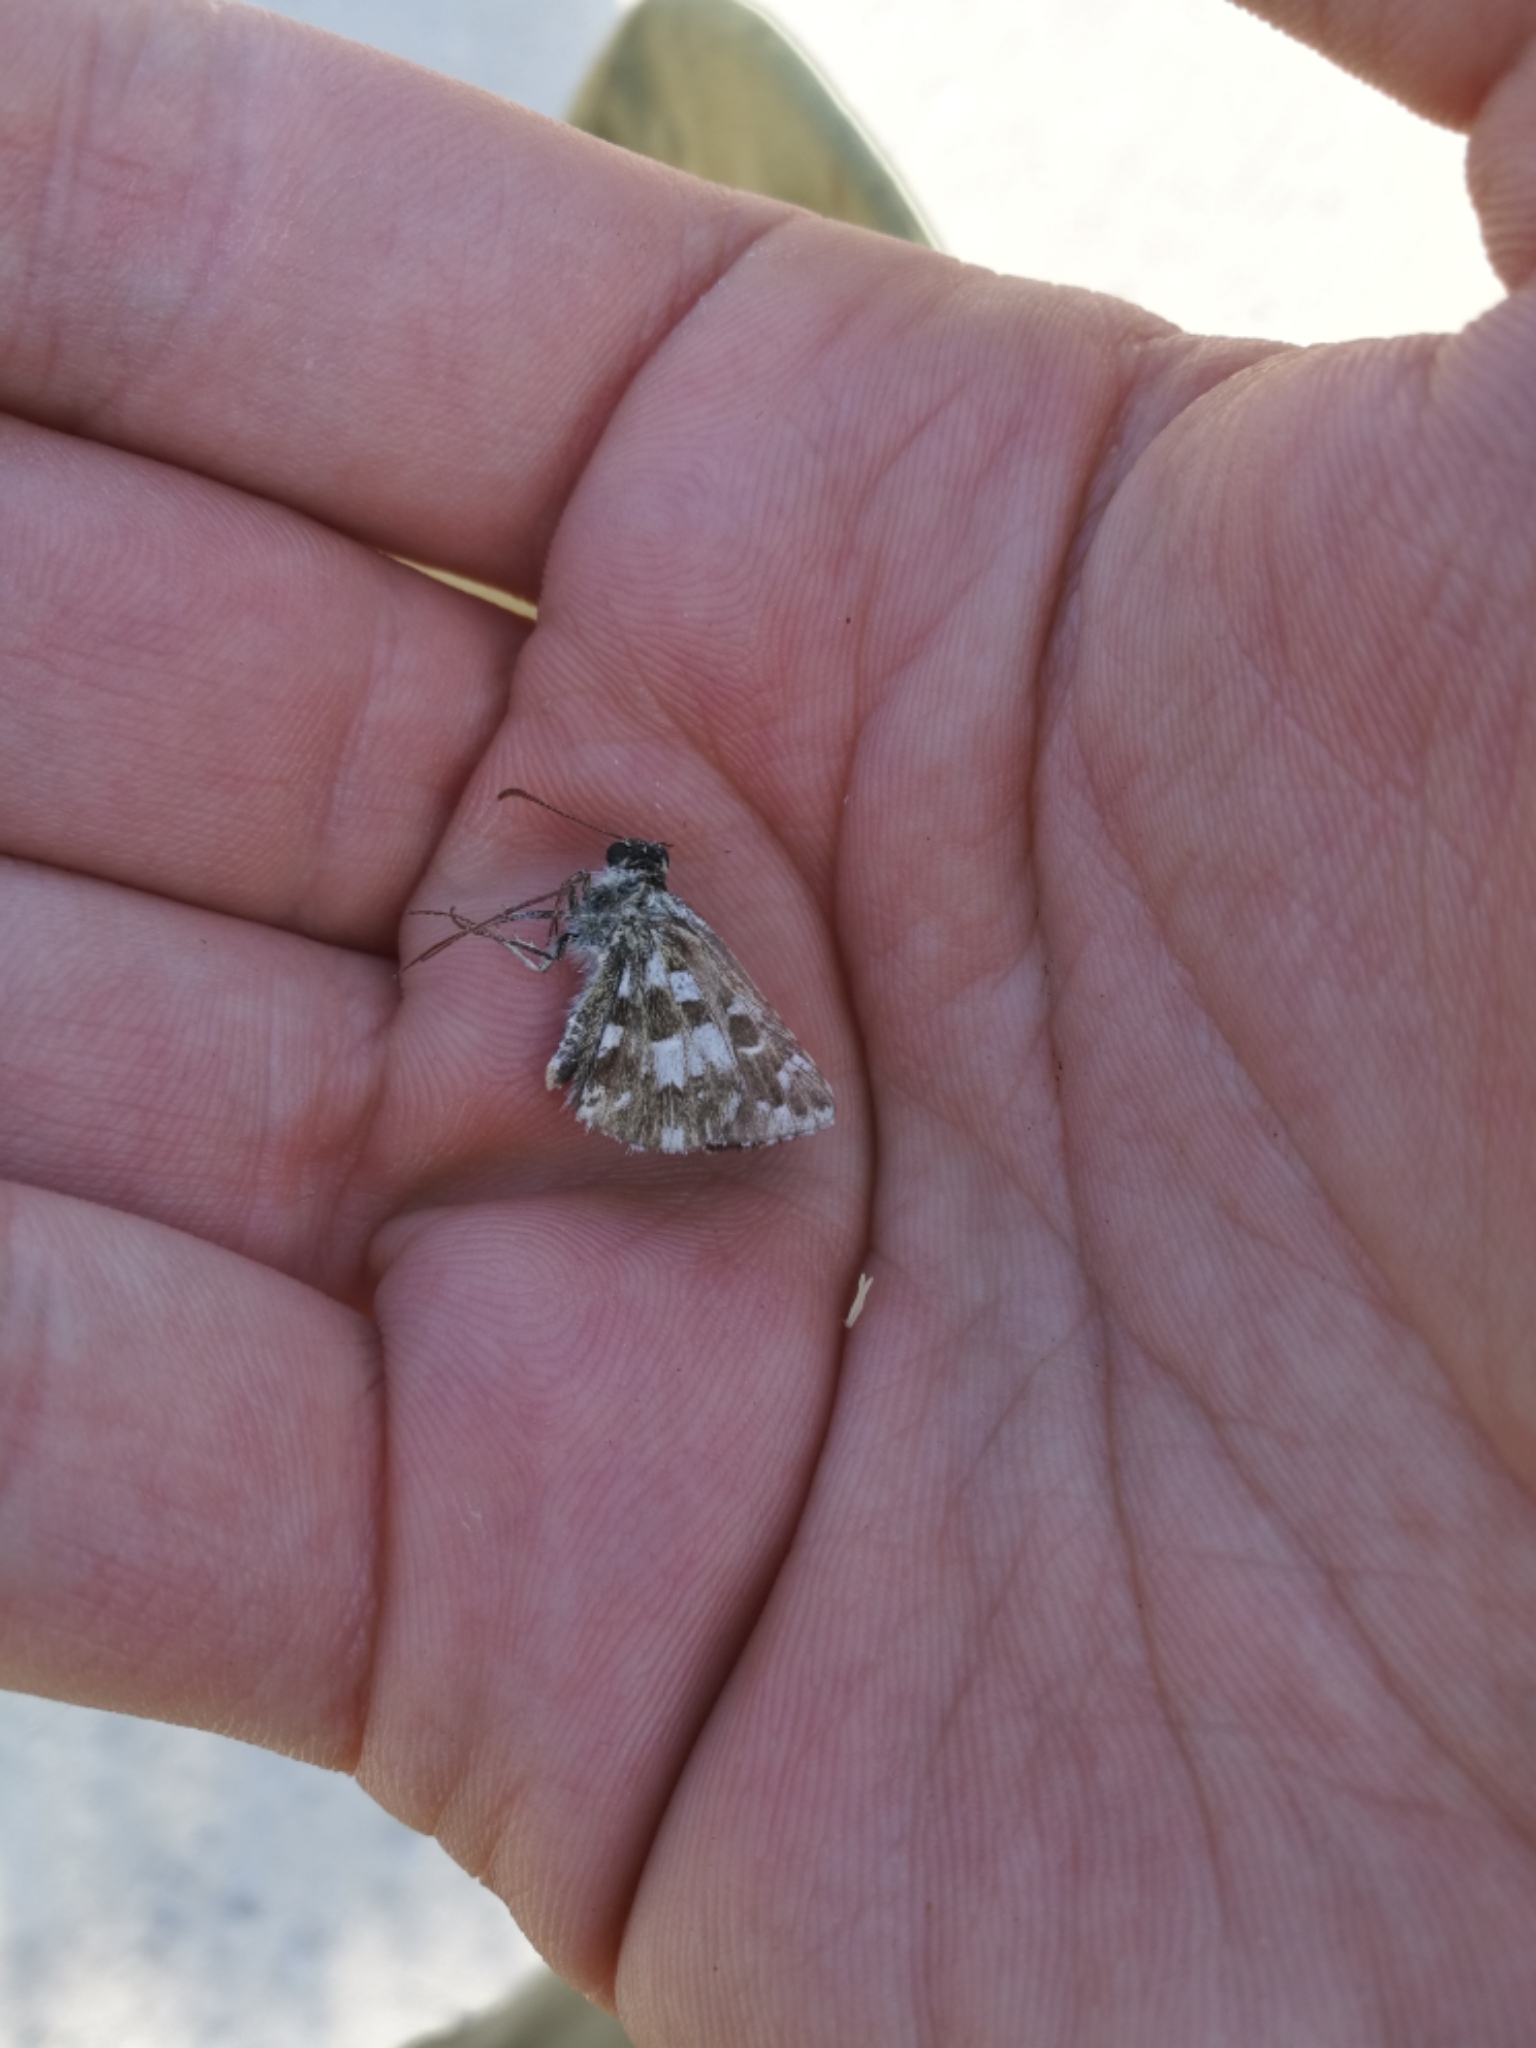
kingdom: Animalia
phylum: Arthropoda
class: Insecta
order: Lepidoptera
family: Hesperiidae
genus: Pyrgus
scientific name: Pyrgus armoricanus
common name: Oberthür's grizzled skipper
